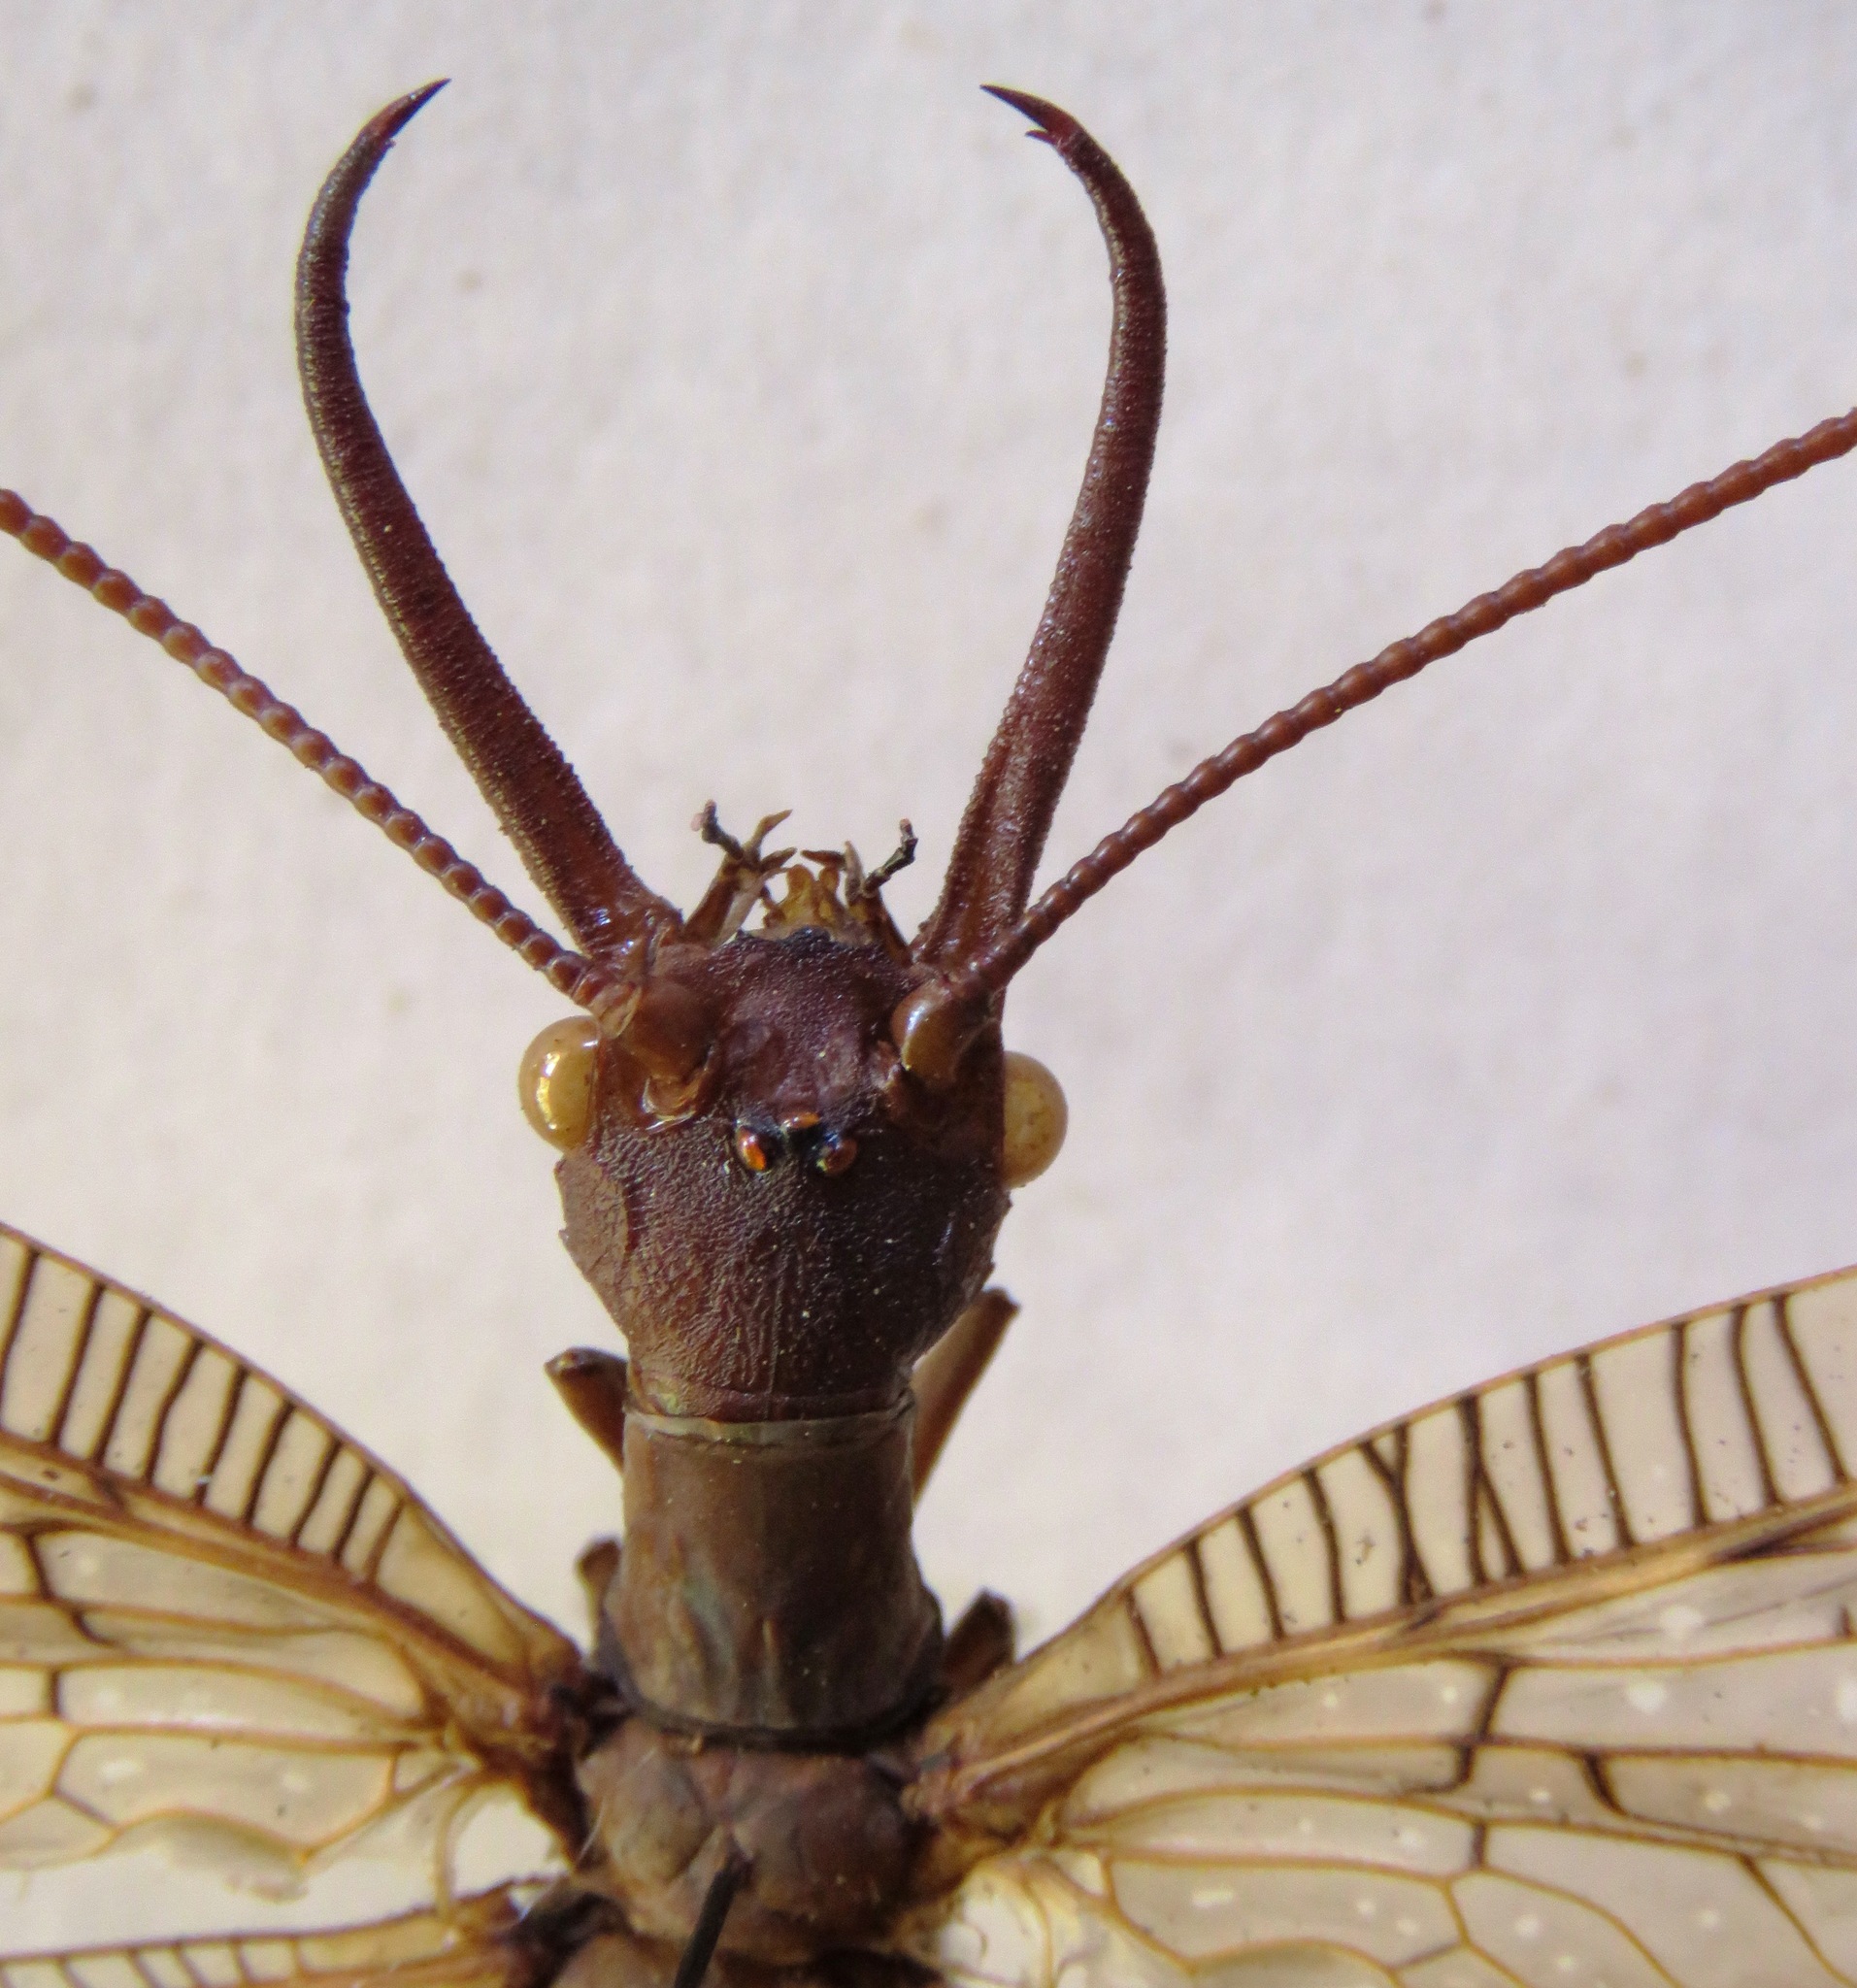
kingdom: Animalia
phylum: Arthropoda
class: Insecta
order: Megaloptera
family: Corydalidae
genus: Corydalus
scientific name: Corydalus magnus
